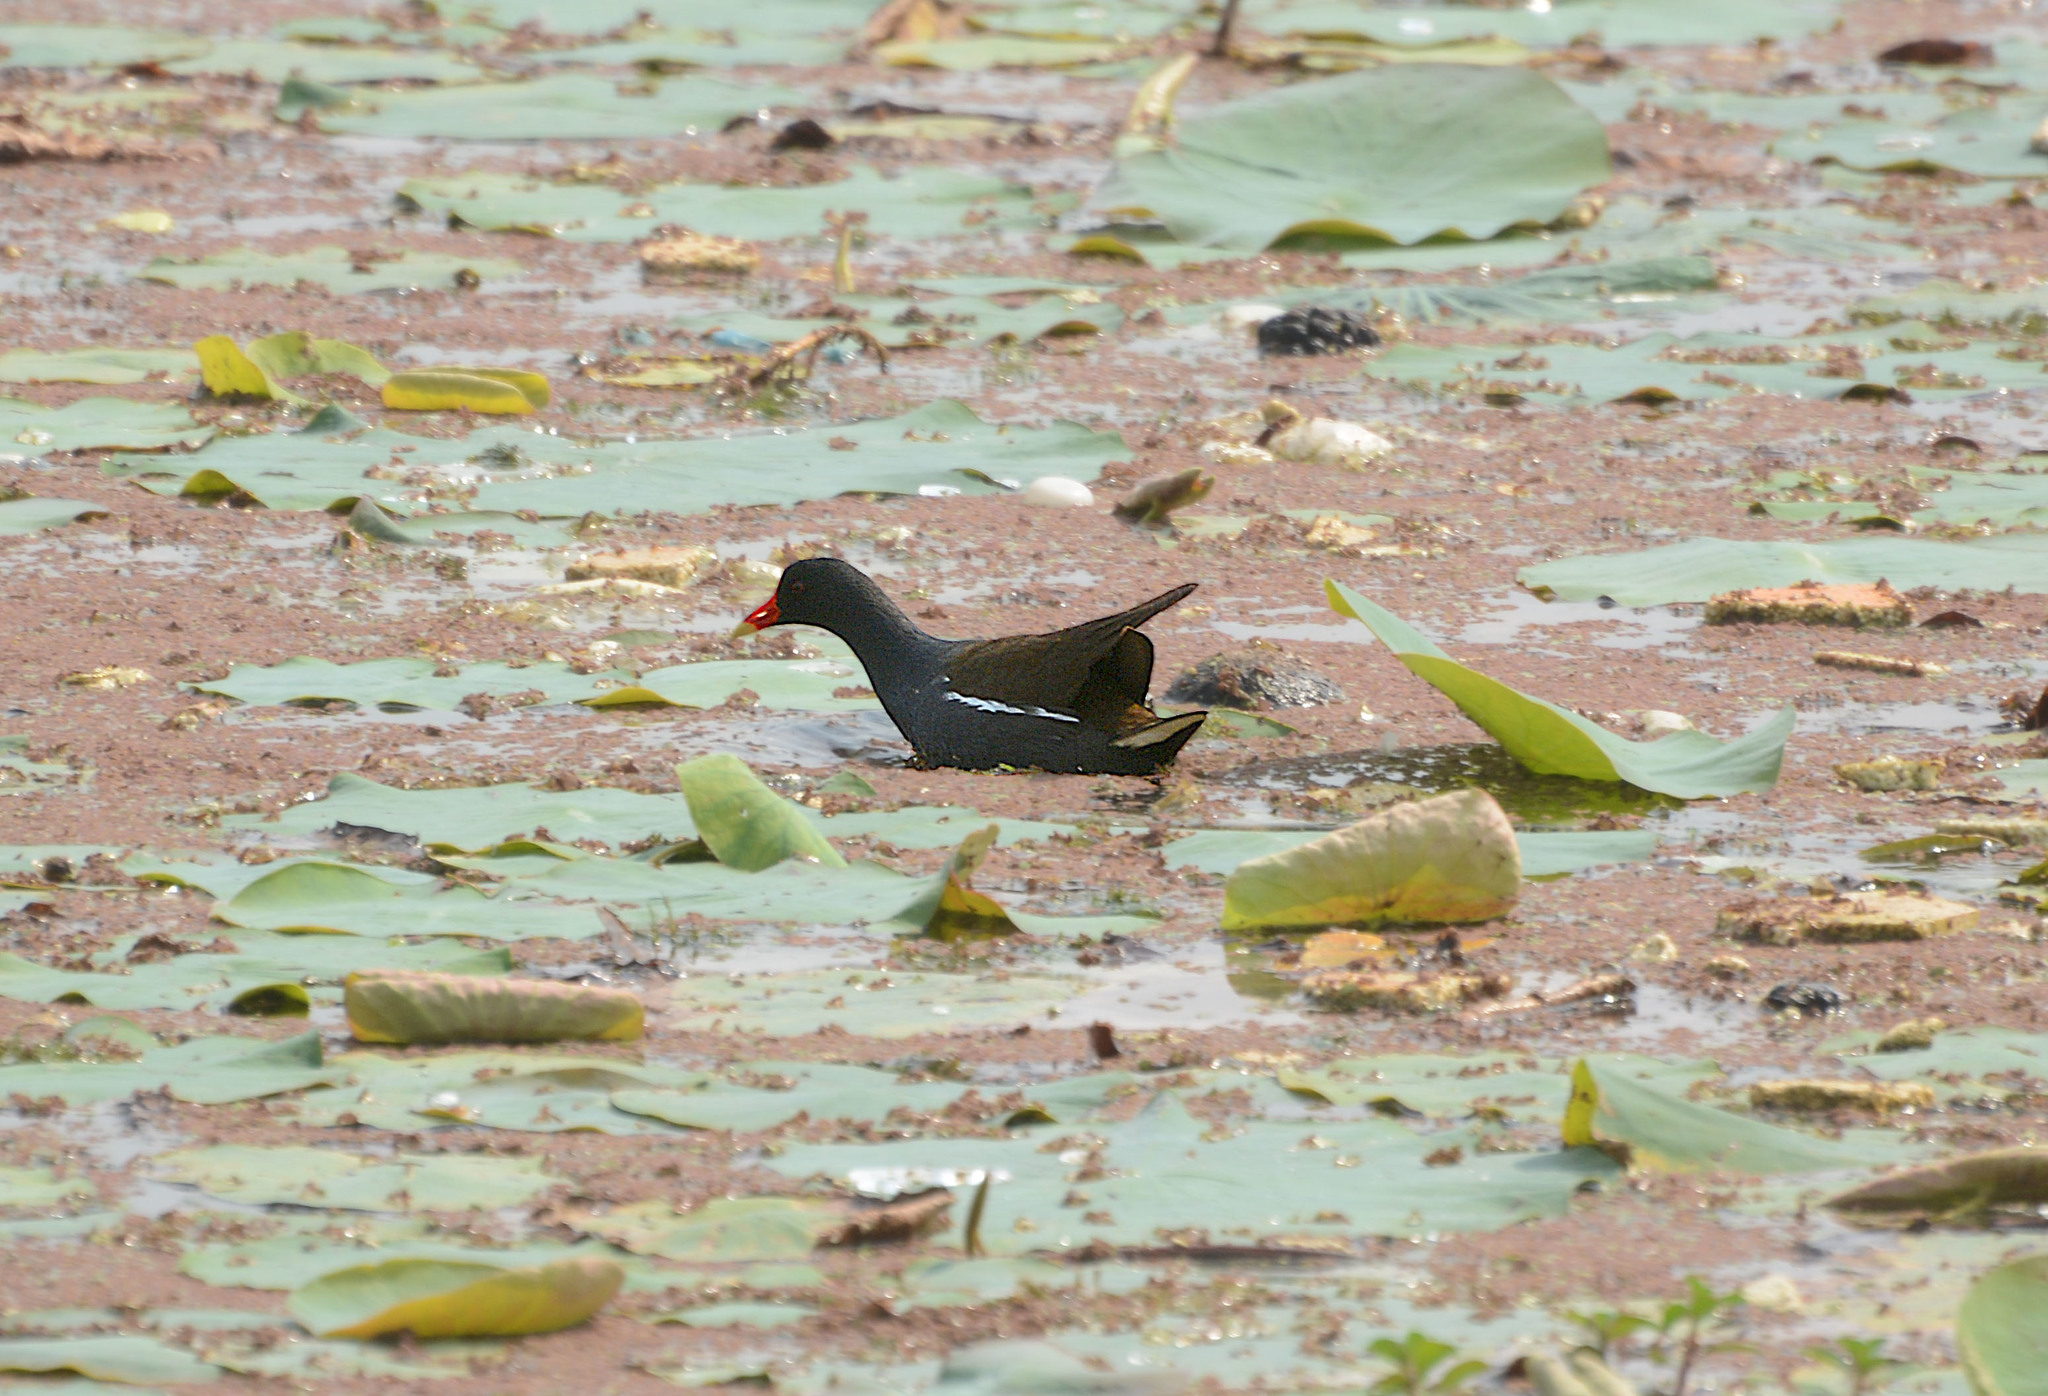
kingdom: Animalia
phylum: Chordata
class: Aves
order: Gruiformes
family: Rallidae
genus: Gallinula
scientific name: Gallinula chloropus
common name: Common moorhen
